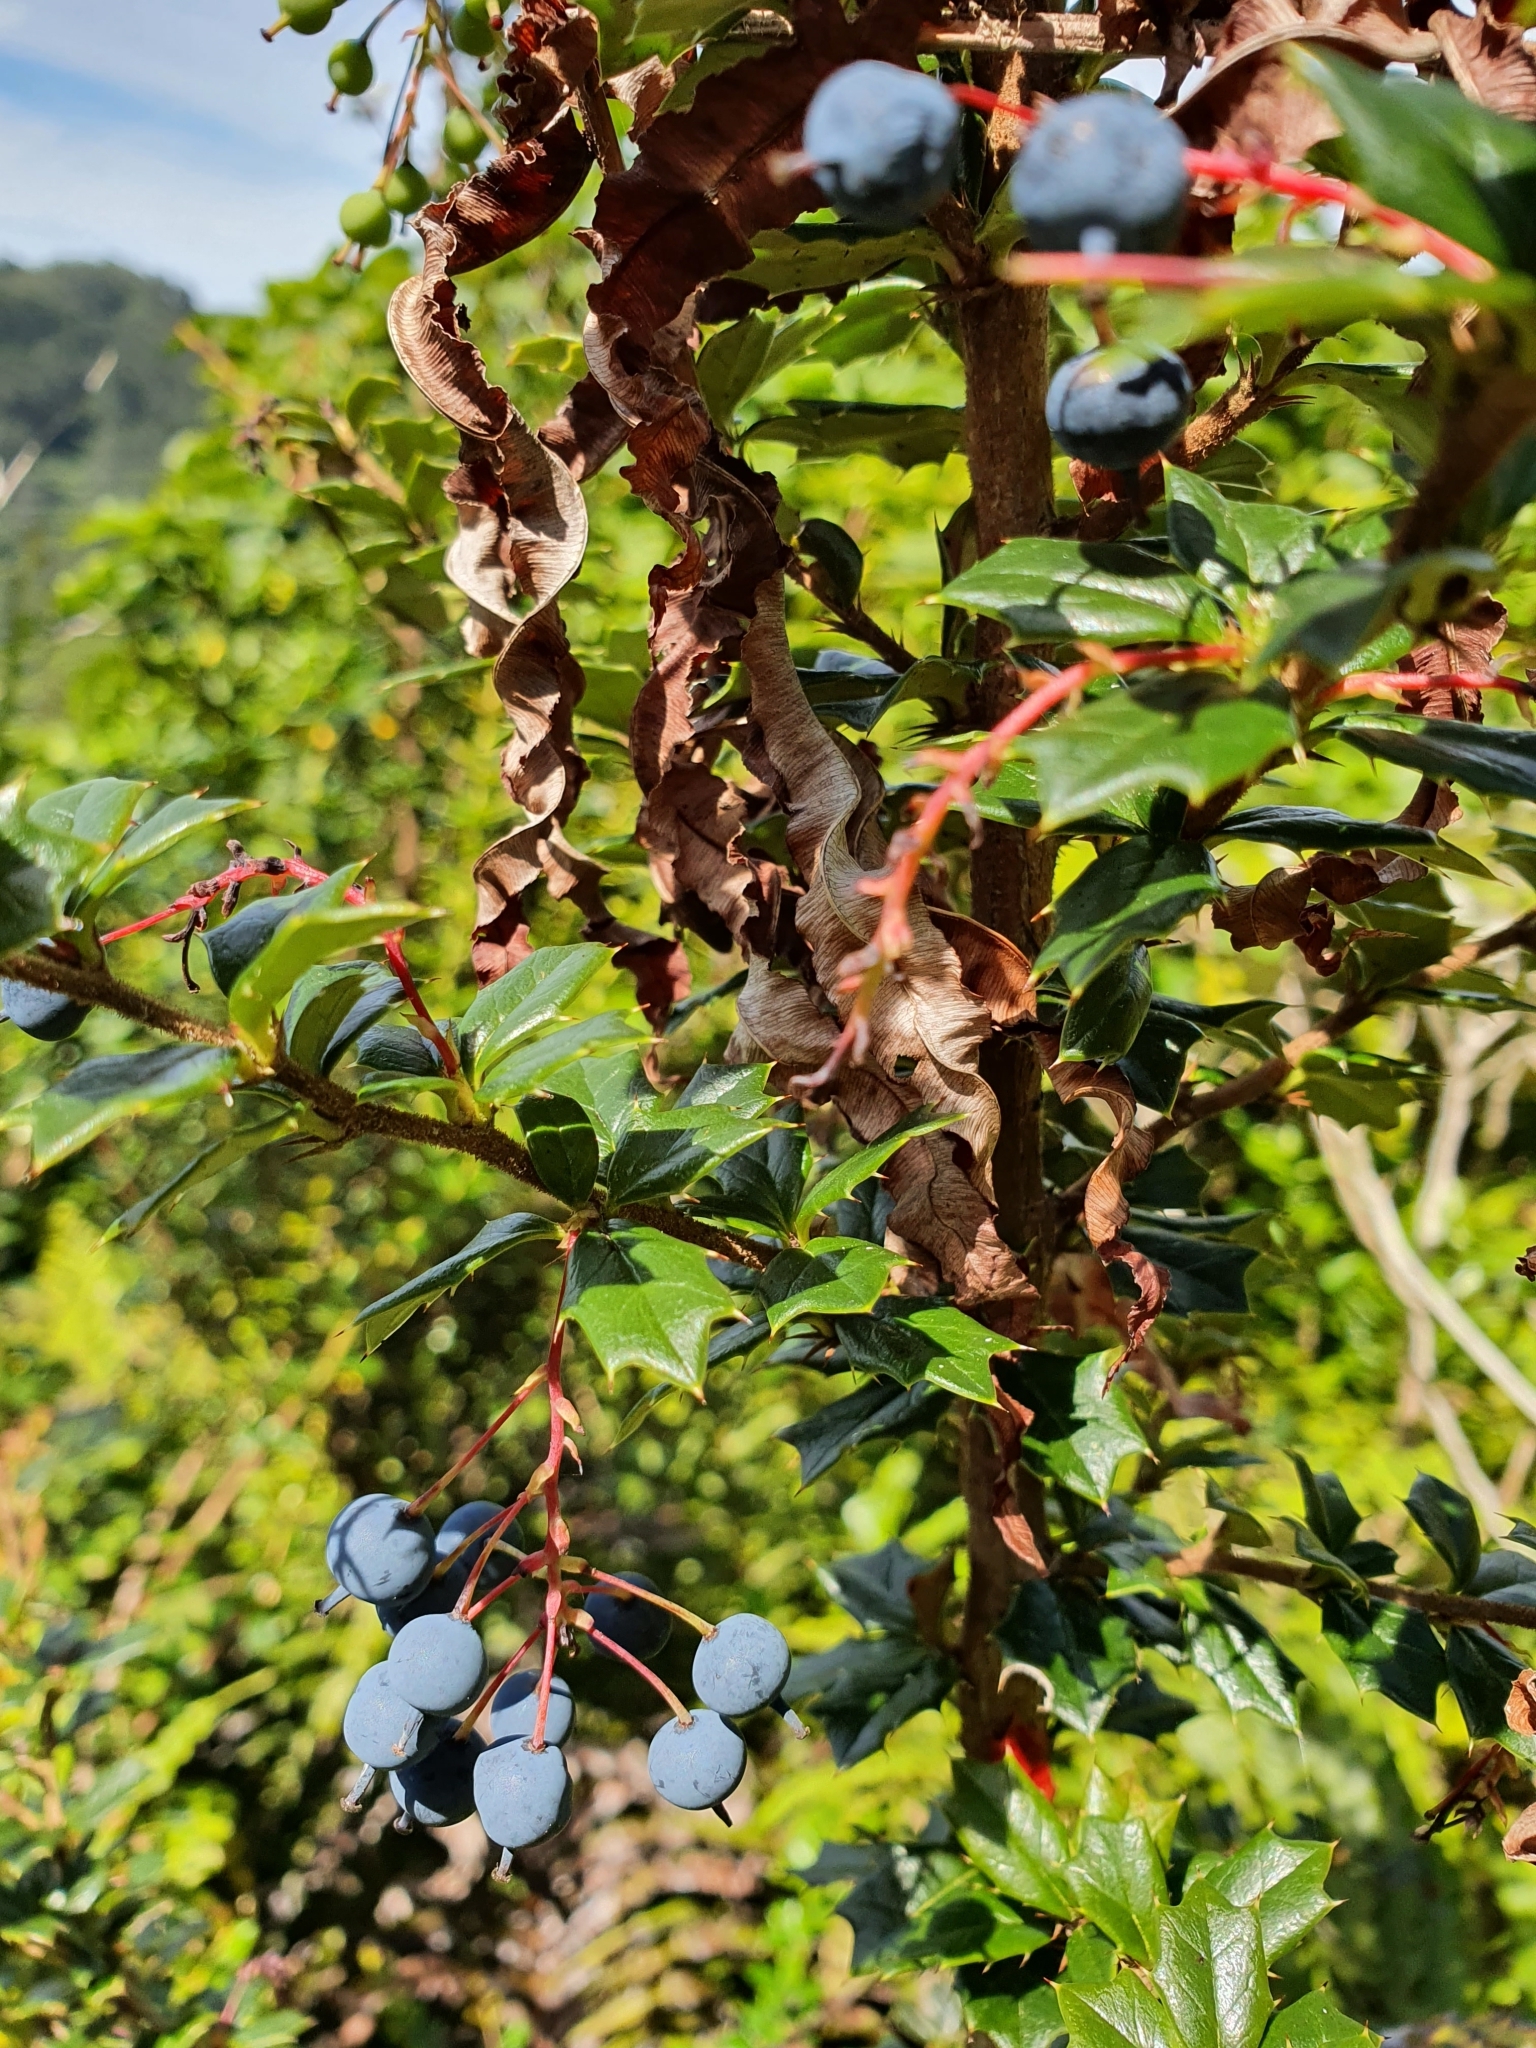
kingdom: Plantae
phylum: Tracheophyta
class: Magnoliopsida
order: Ranunculales
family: Berberidaceae
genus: Berberis
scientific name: Berberis darwinii
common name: Darwin's barberry
